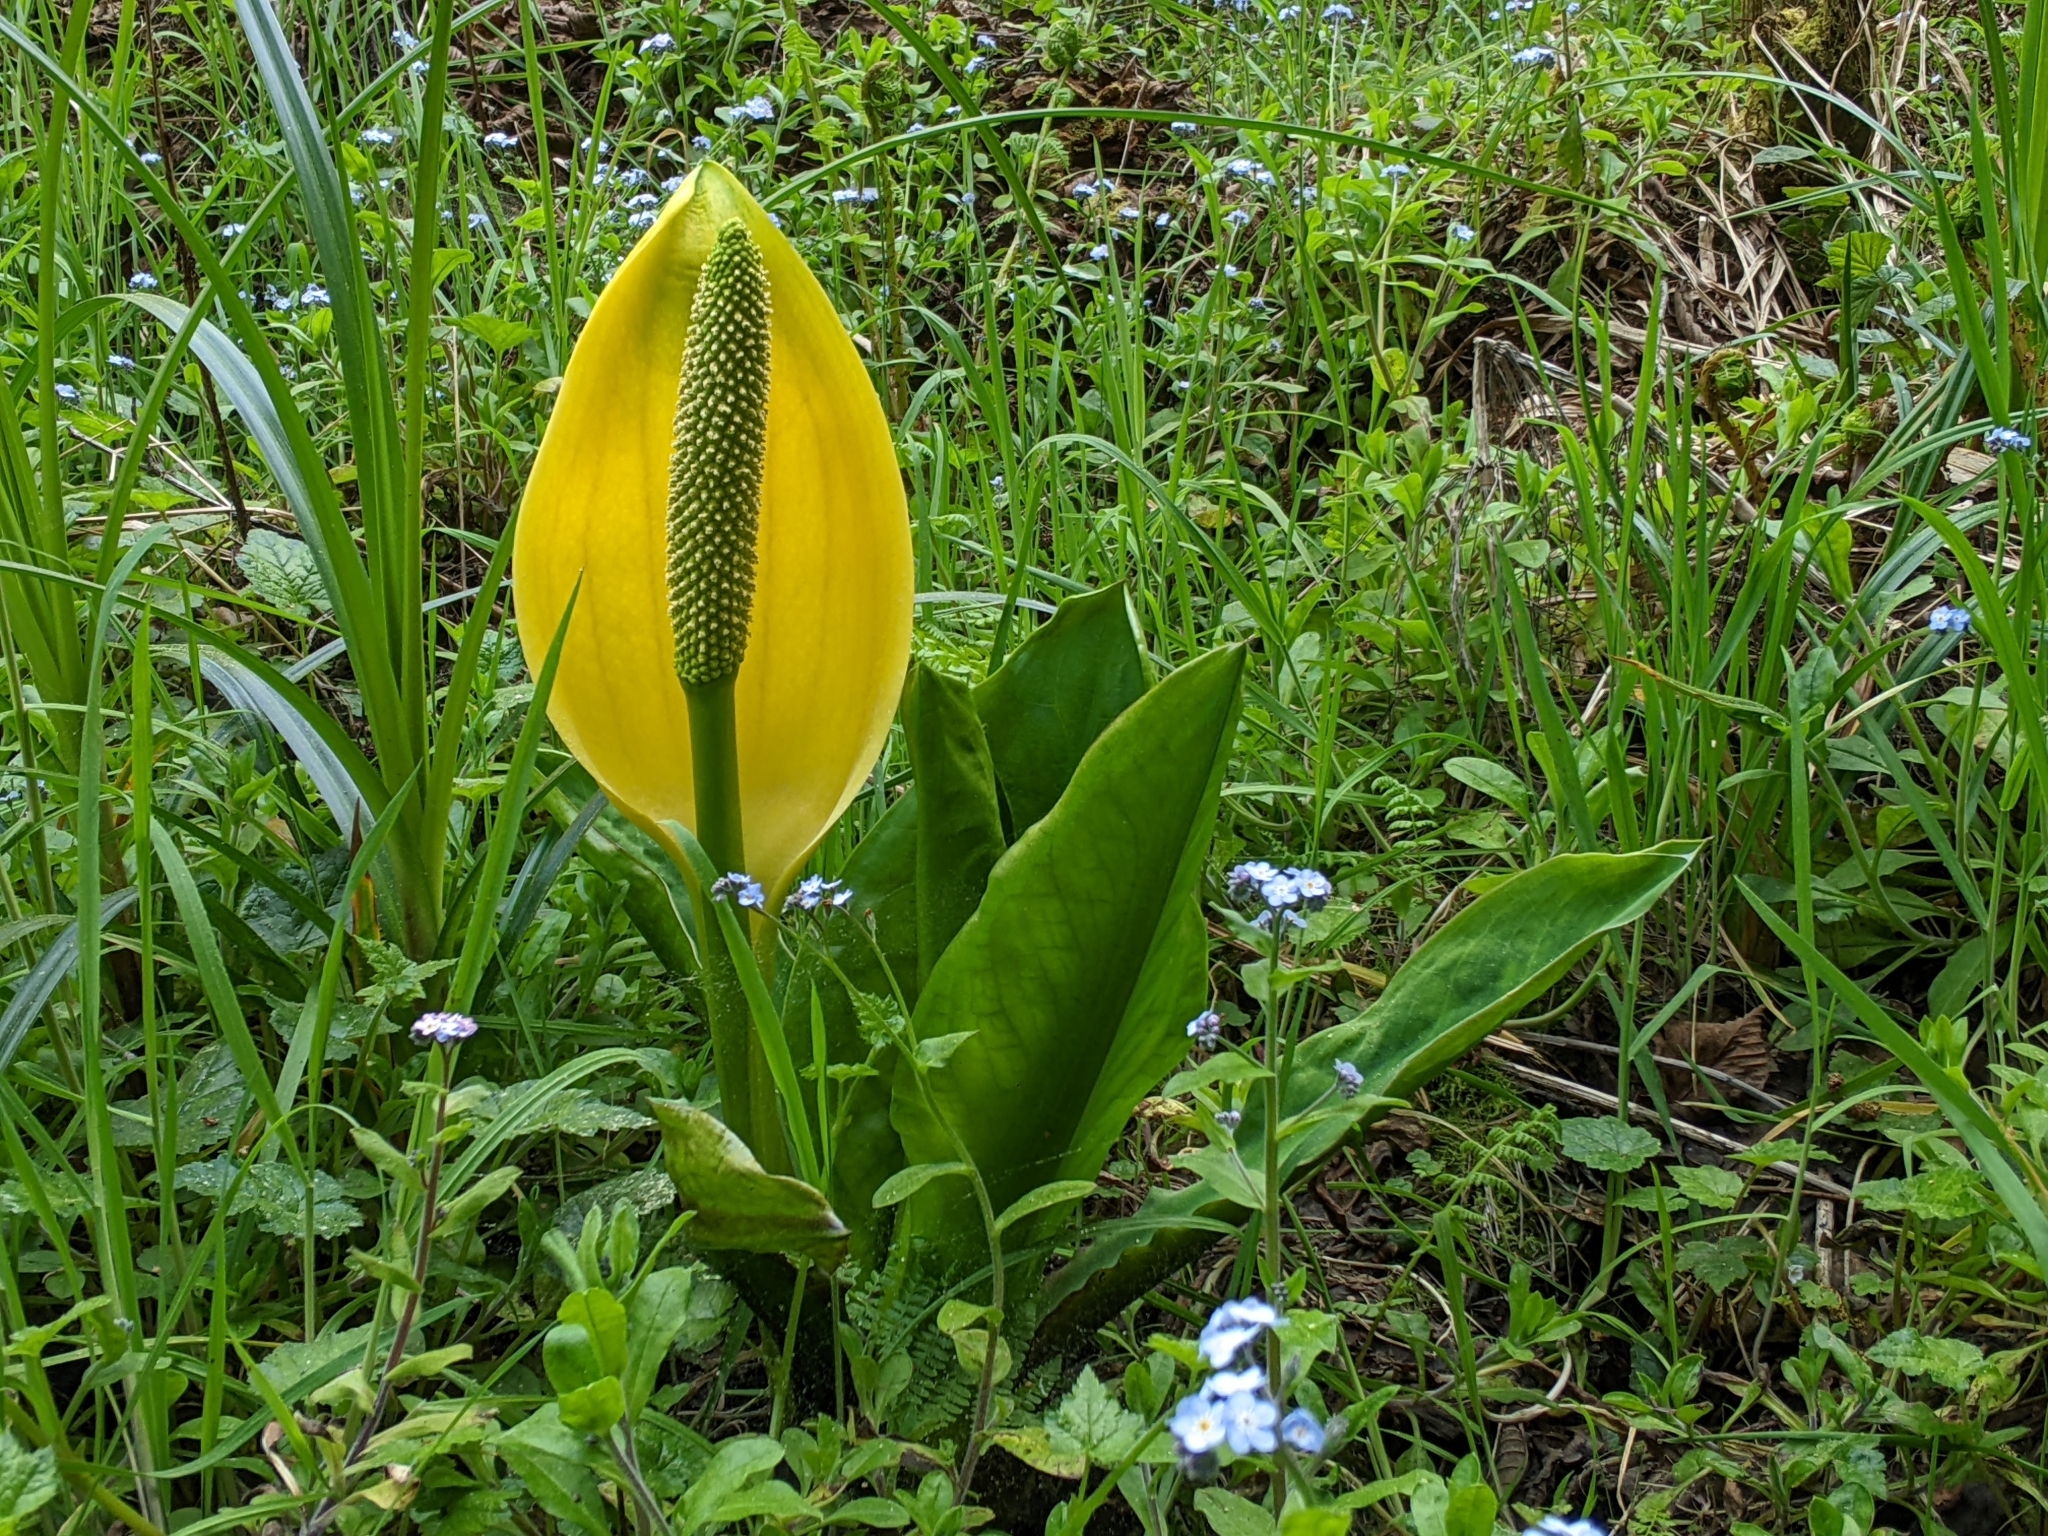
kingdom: Plantae
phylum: Tracheophyta
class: Liliopsida
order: Alismatales
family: Araceae
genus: Lysichiton
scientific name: Lysichiton americanus
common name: American skunk cabbage
